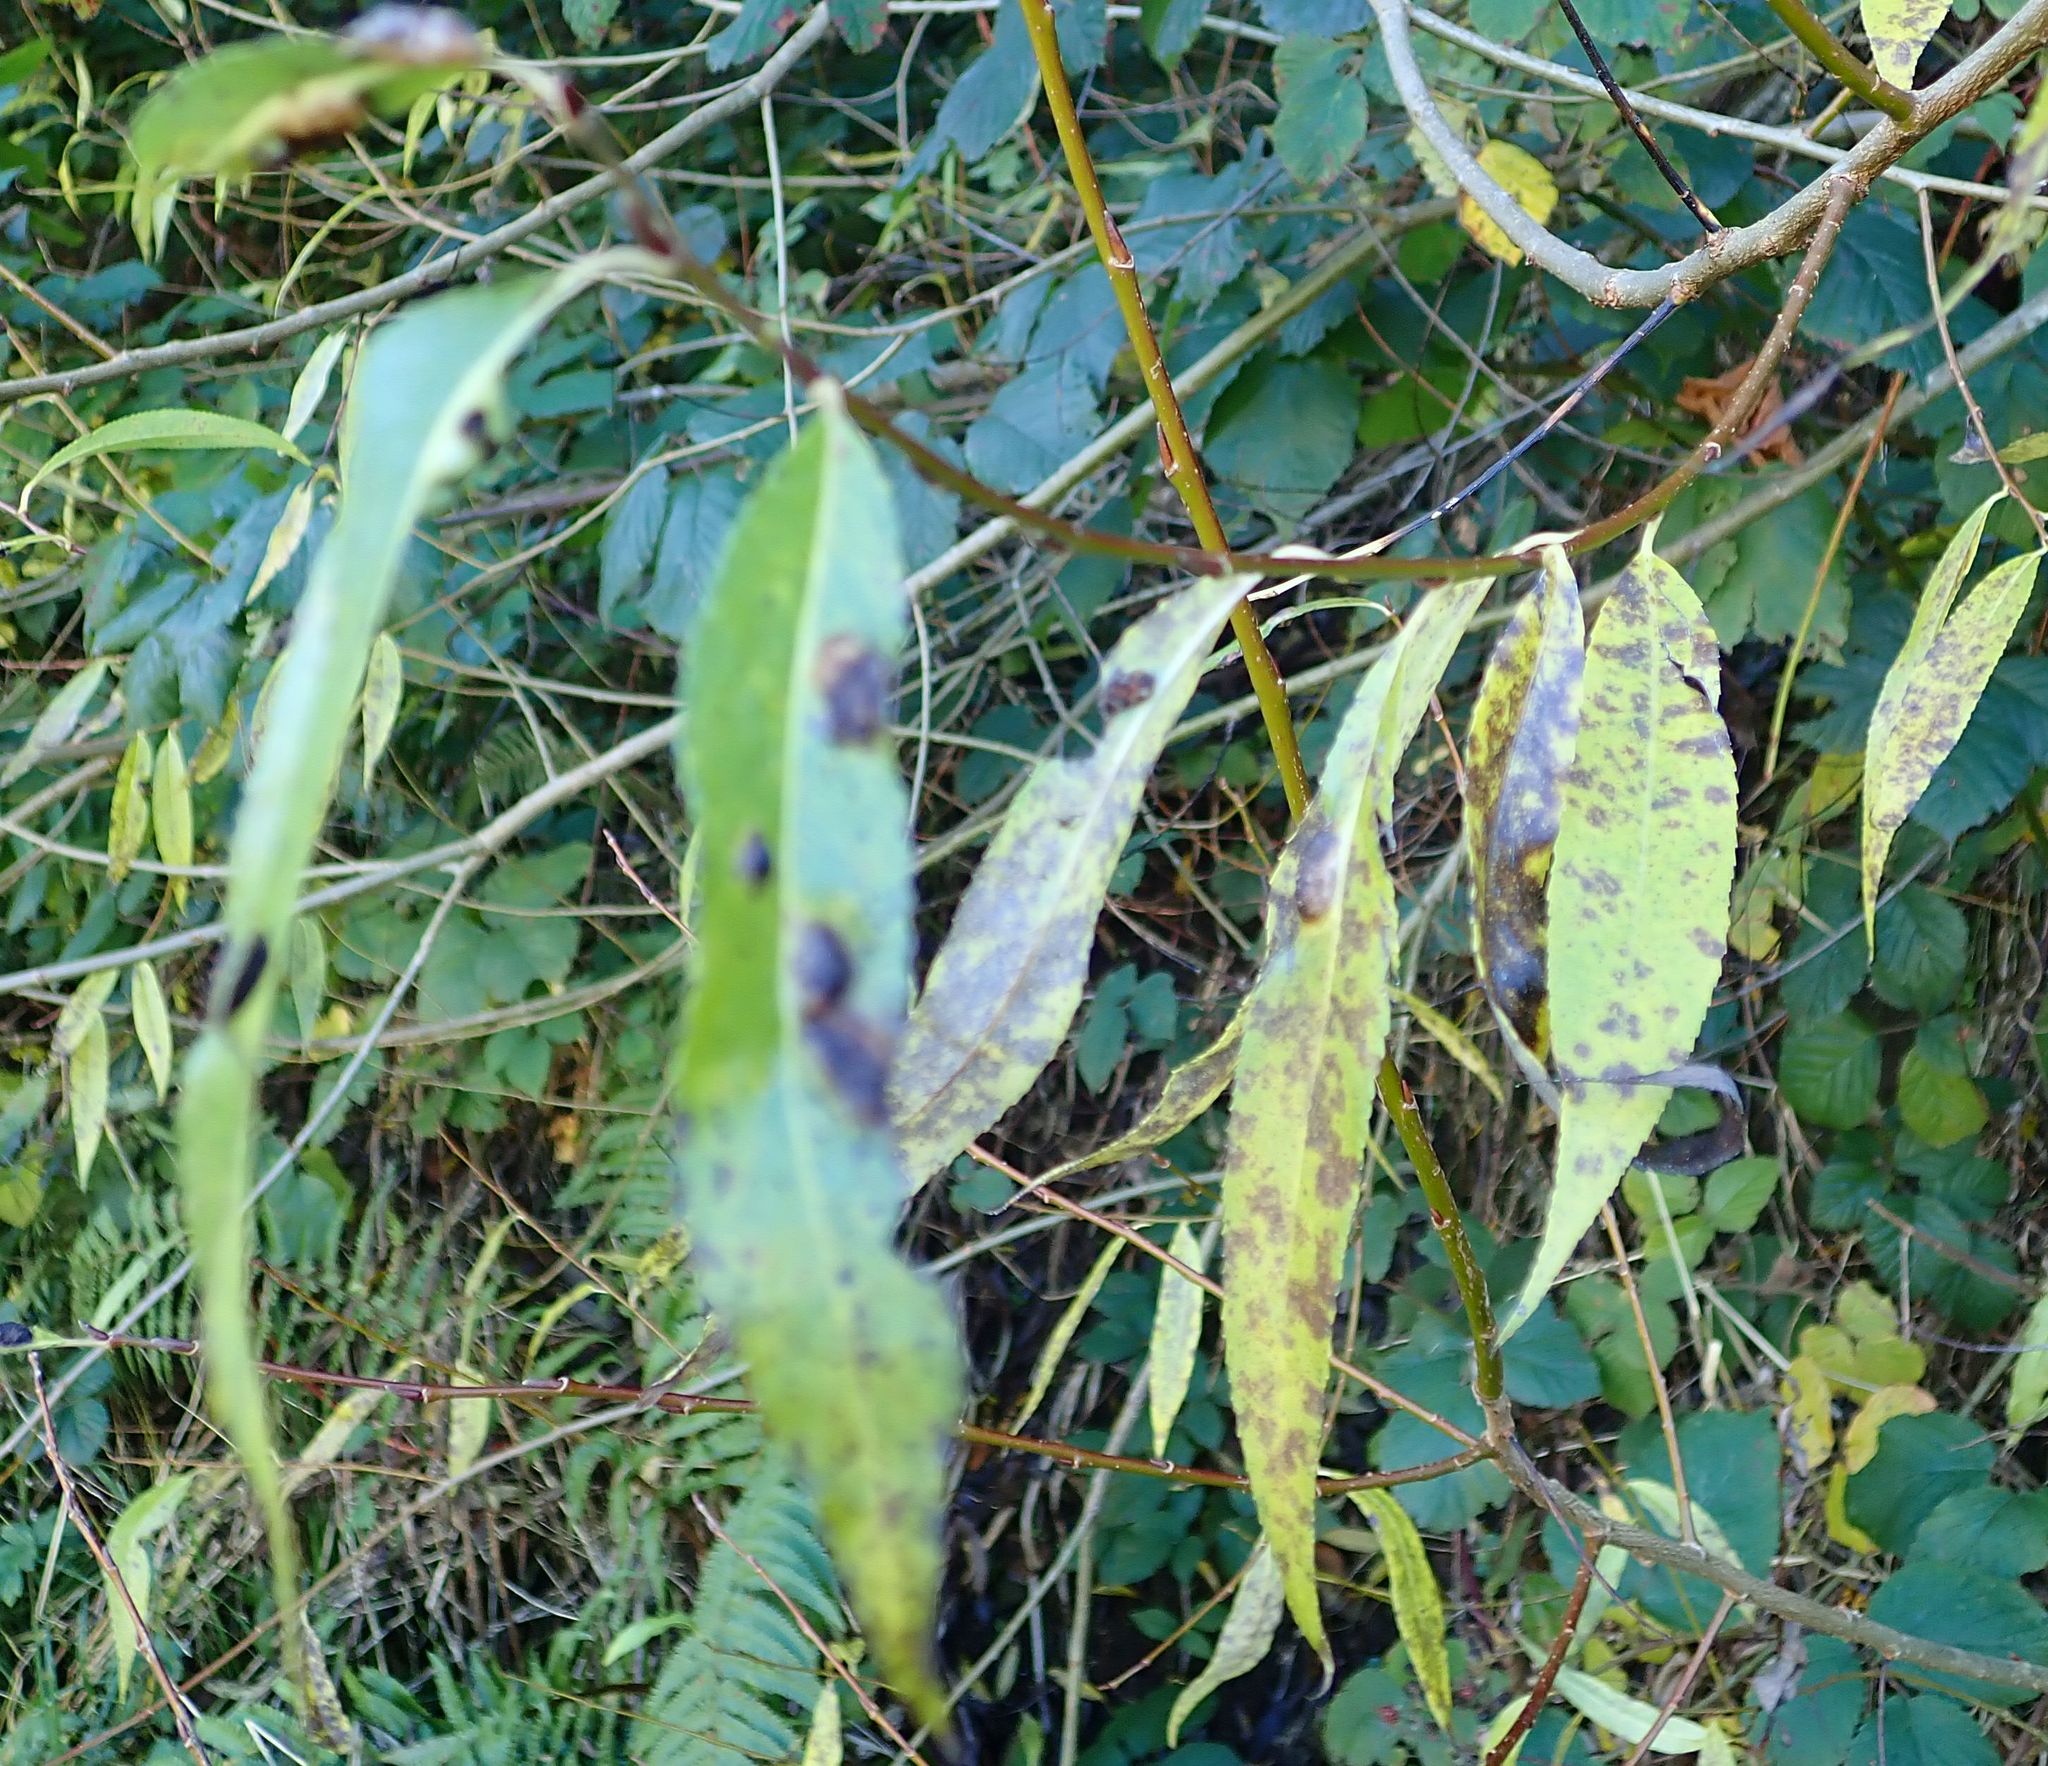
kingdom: Plantae
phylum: Tracheophyta
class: Magnoliopsida
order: Malpighiales
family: Salicaceae
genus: Salix
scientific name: Salix fragilis
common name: Crack willow
